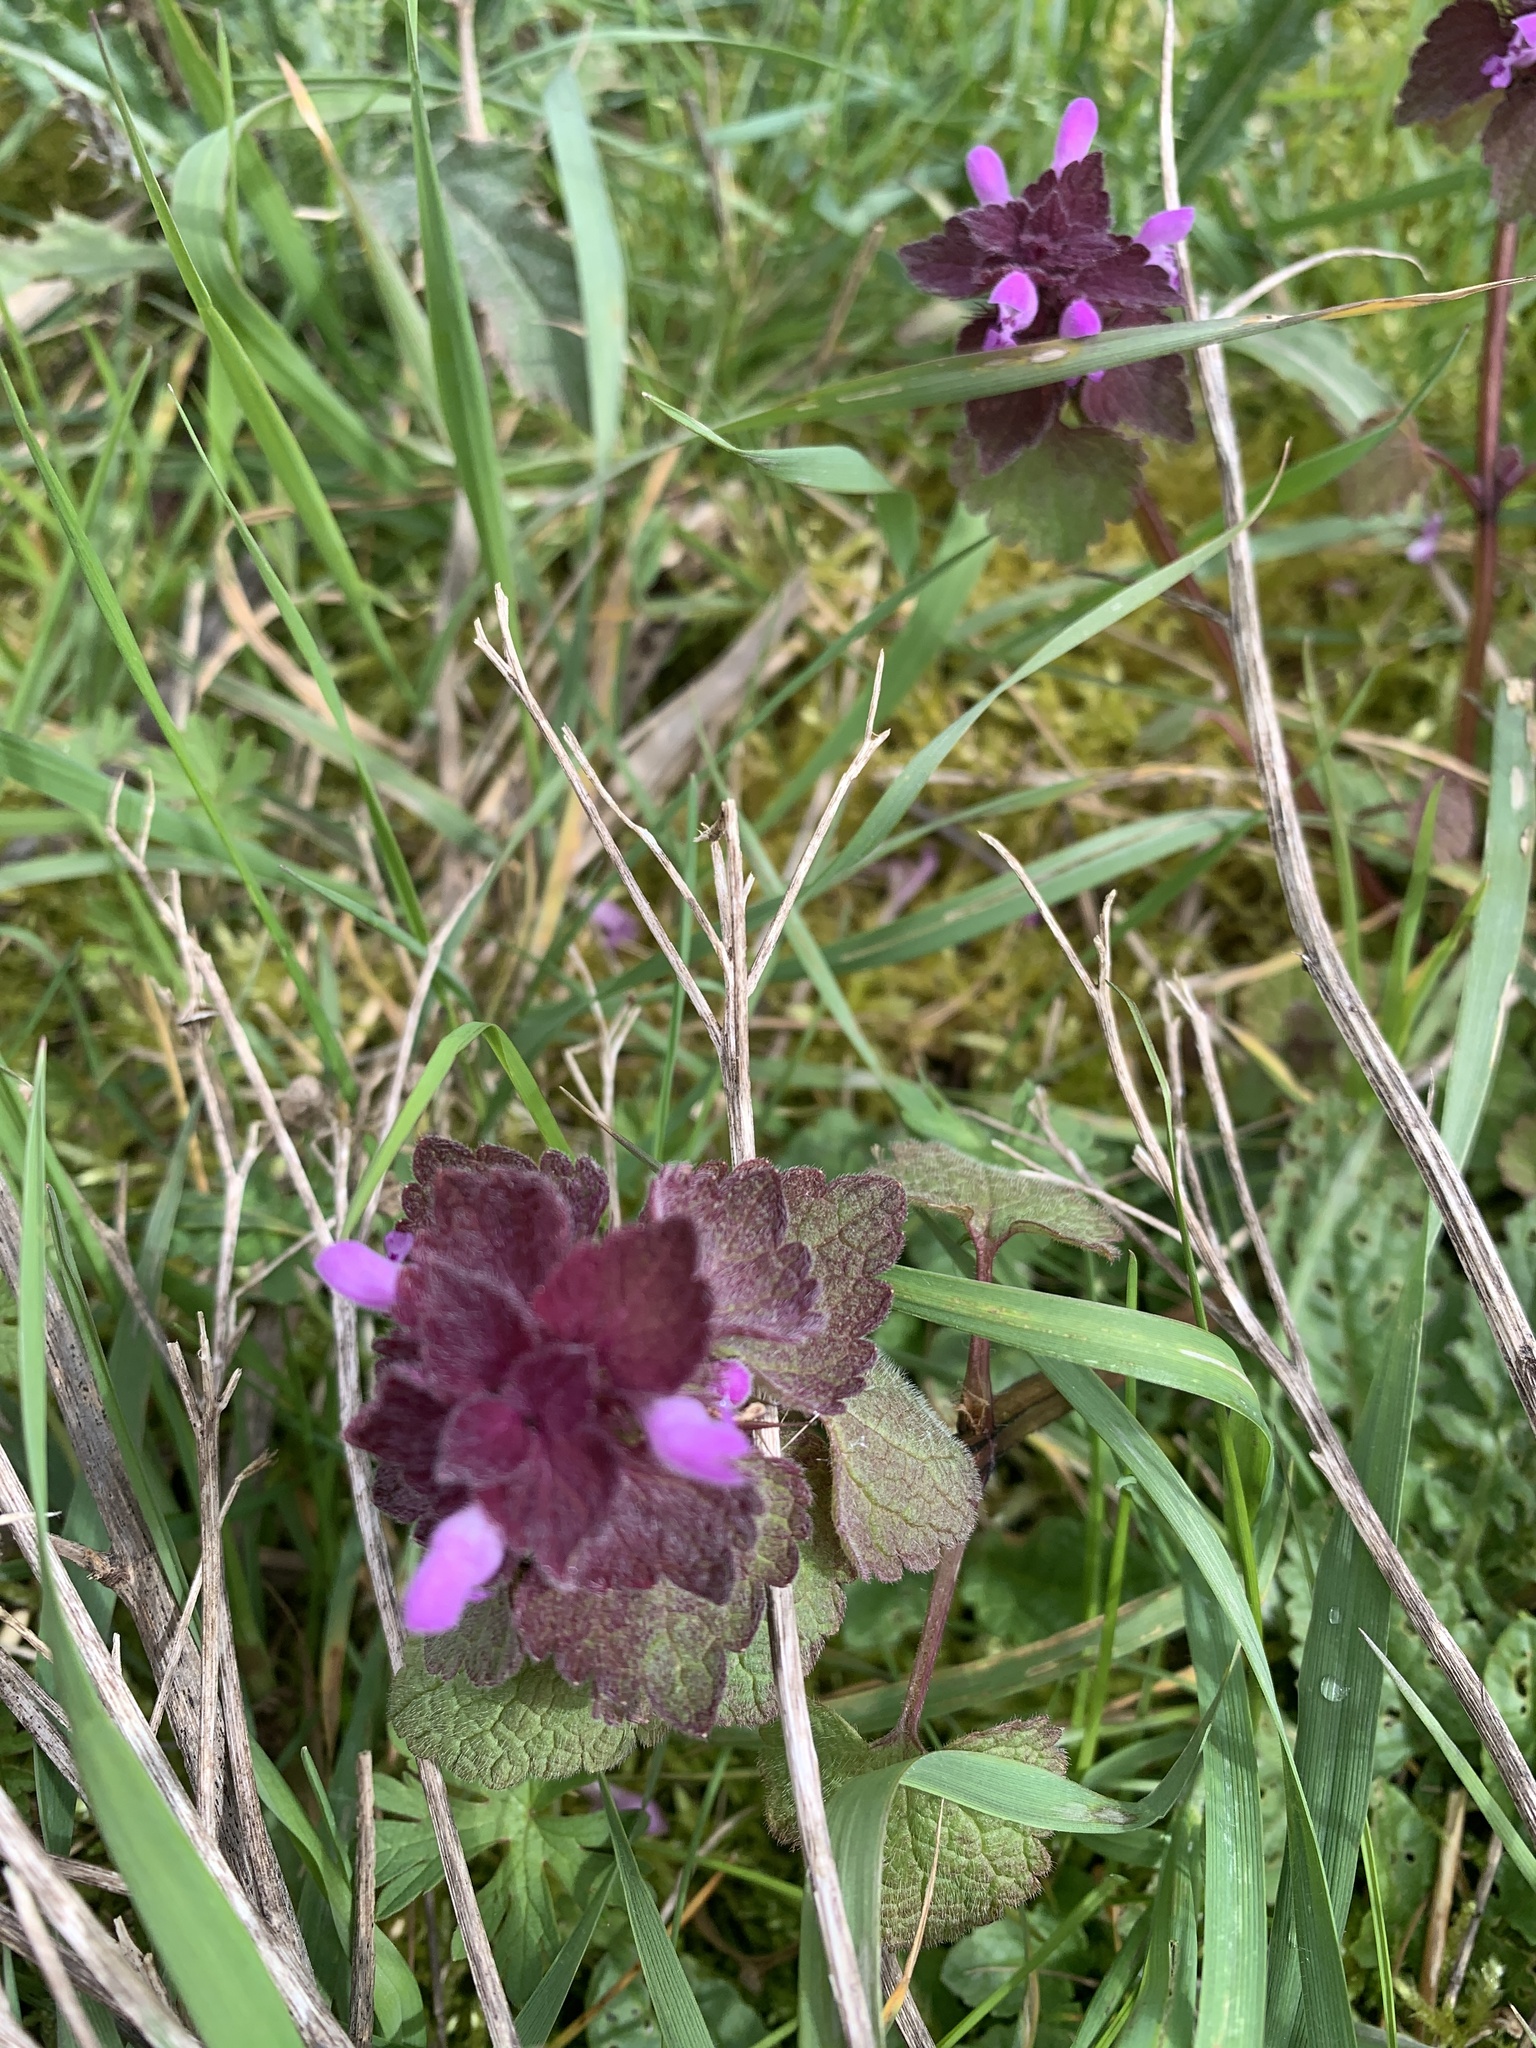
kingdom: Plantae
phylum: Tracheophyta
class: Magnoliopsida
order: Lamiales
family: Lamiaceae
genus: Lamium
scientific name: Lamium purpureum
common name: Red dead-nettle
